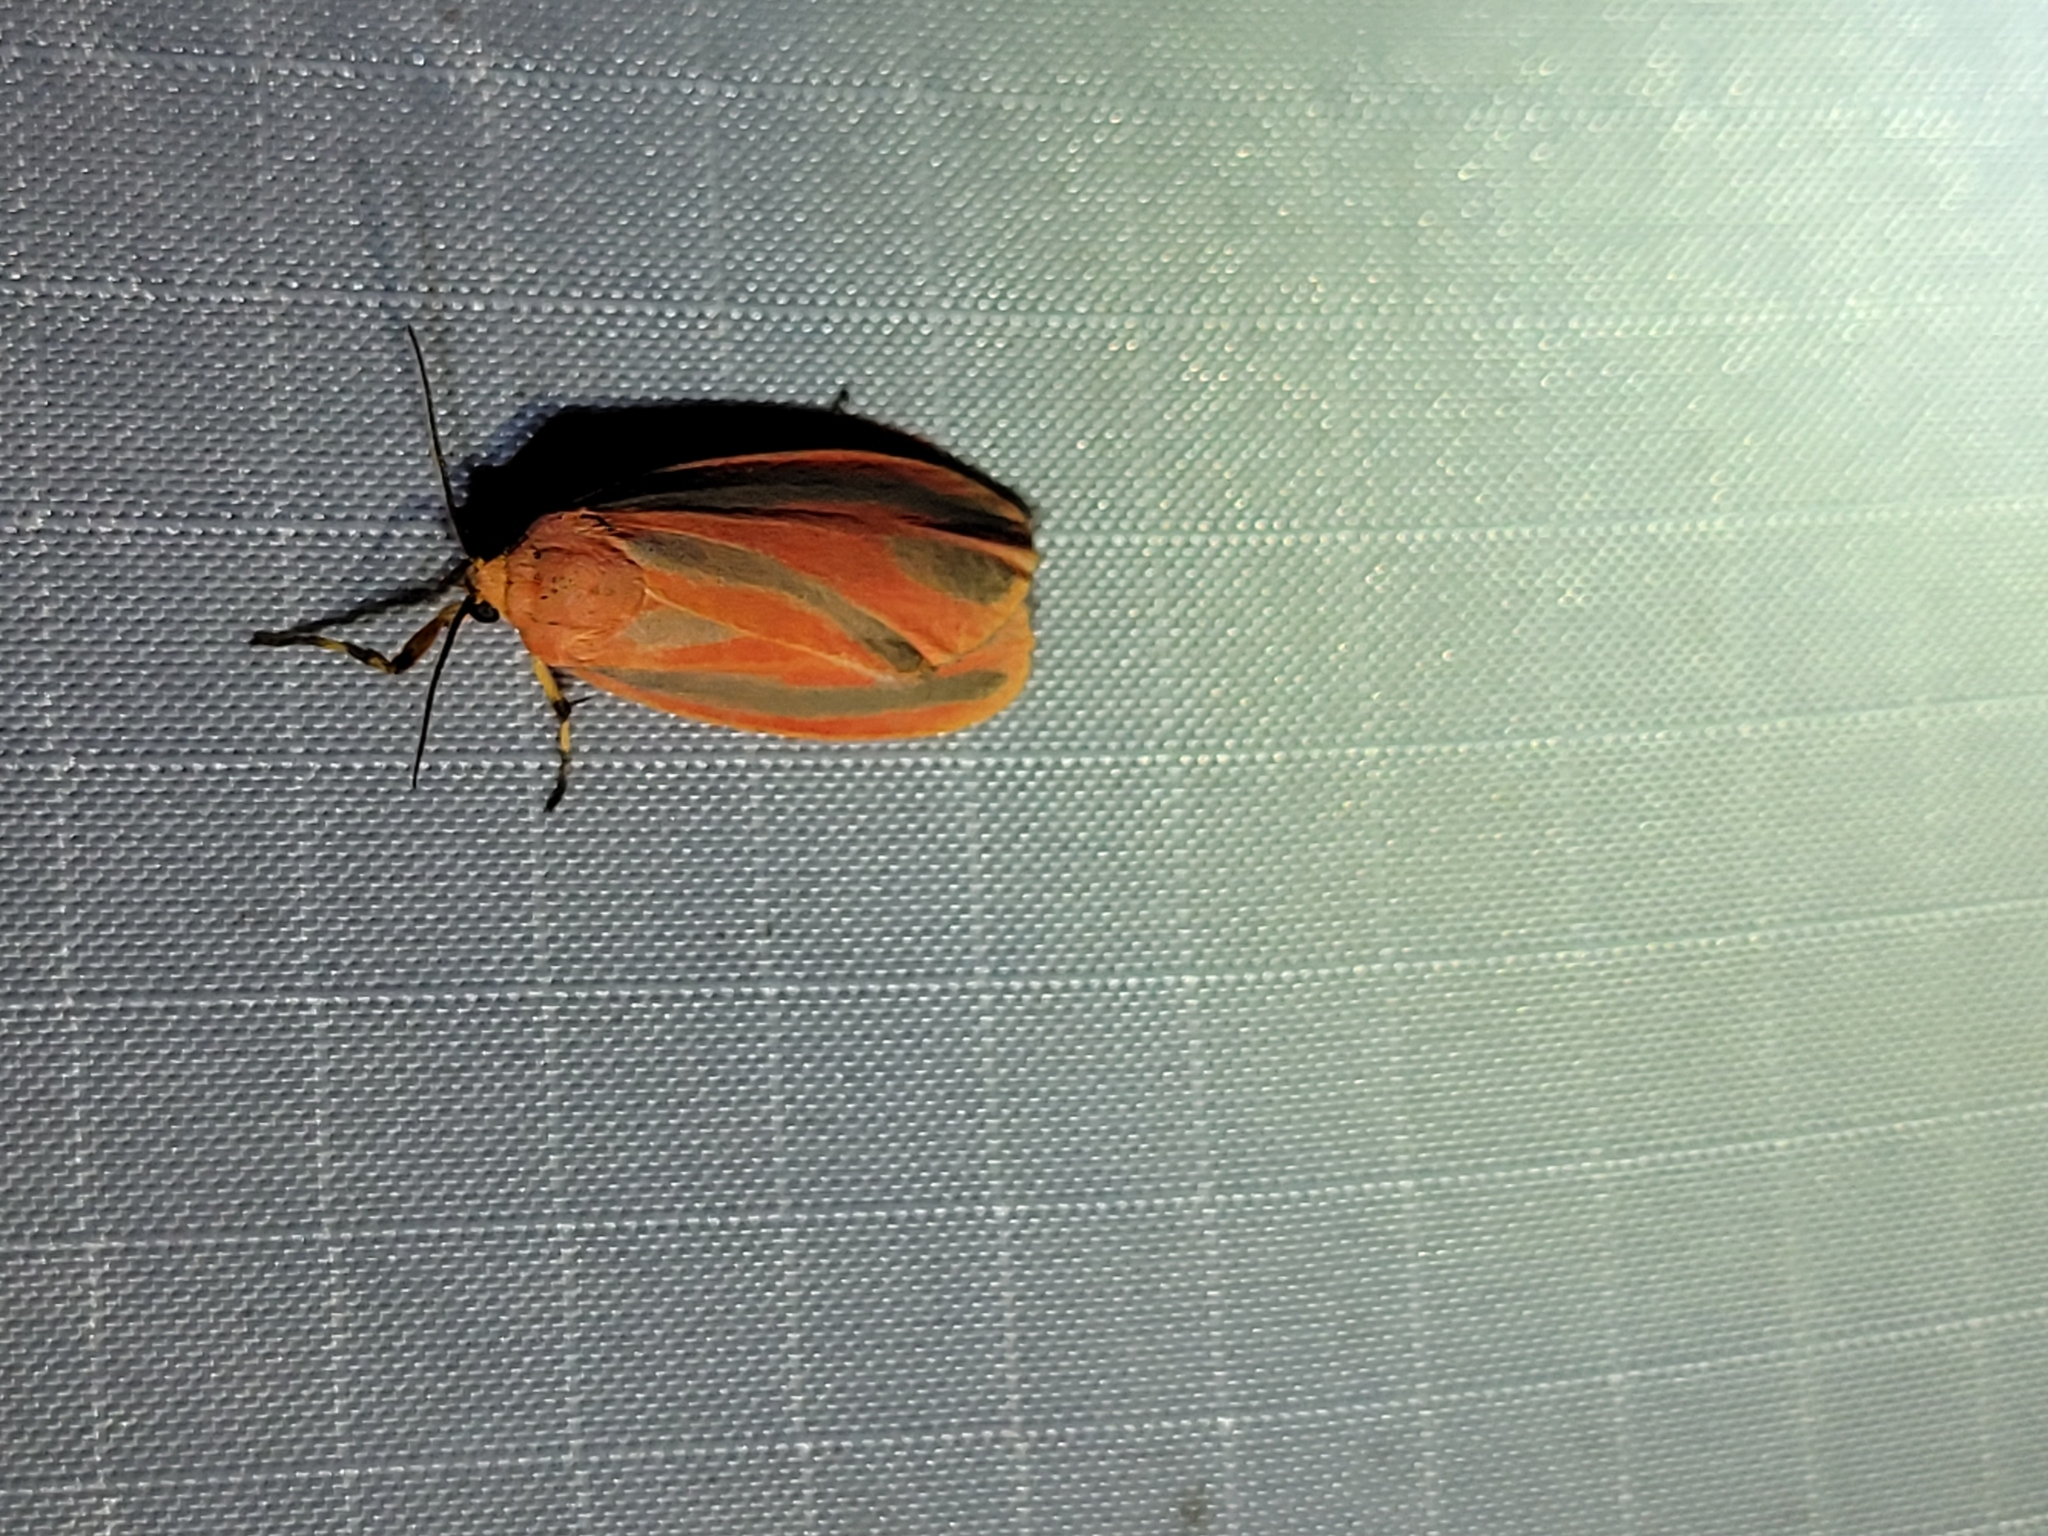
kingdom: Animalia
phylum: Arthropoda
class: Insecta
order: Lepidoptera
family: Erebidae
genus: Hypoprepia
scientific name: Hypoprepia miniata
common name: Scarlet-winged lichen moth
